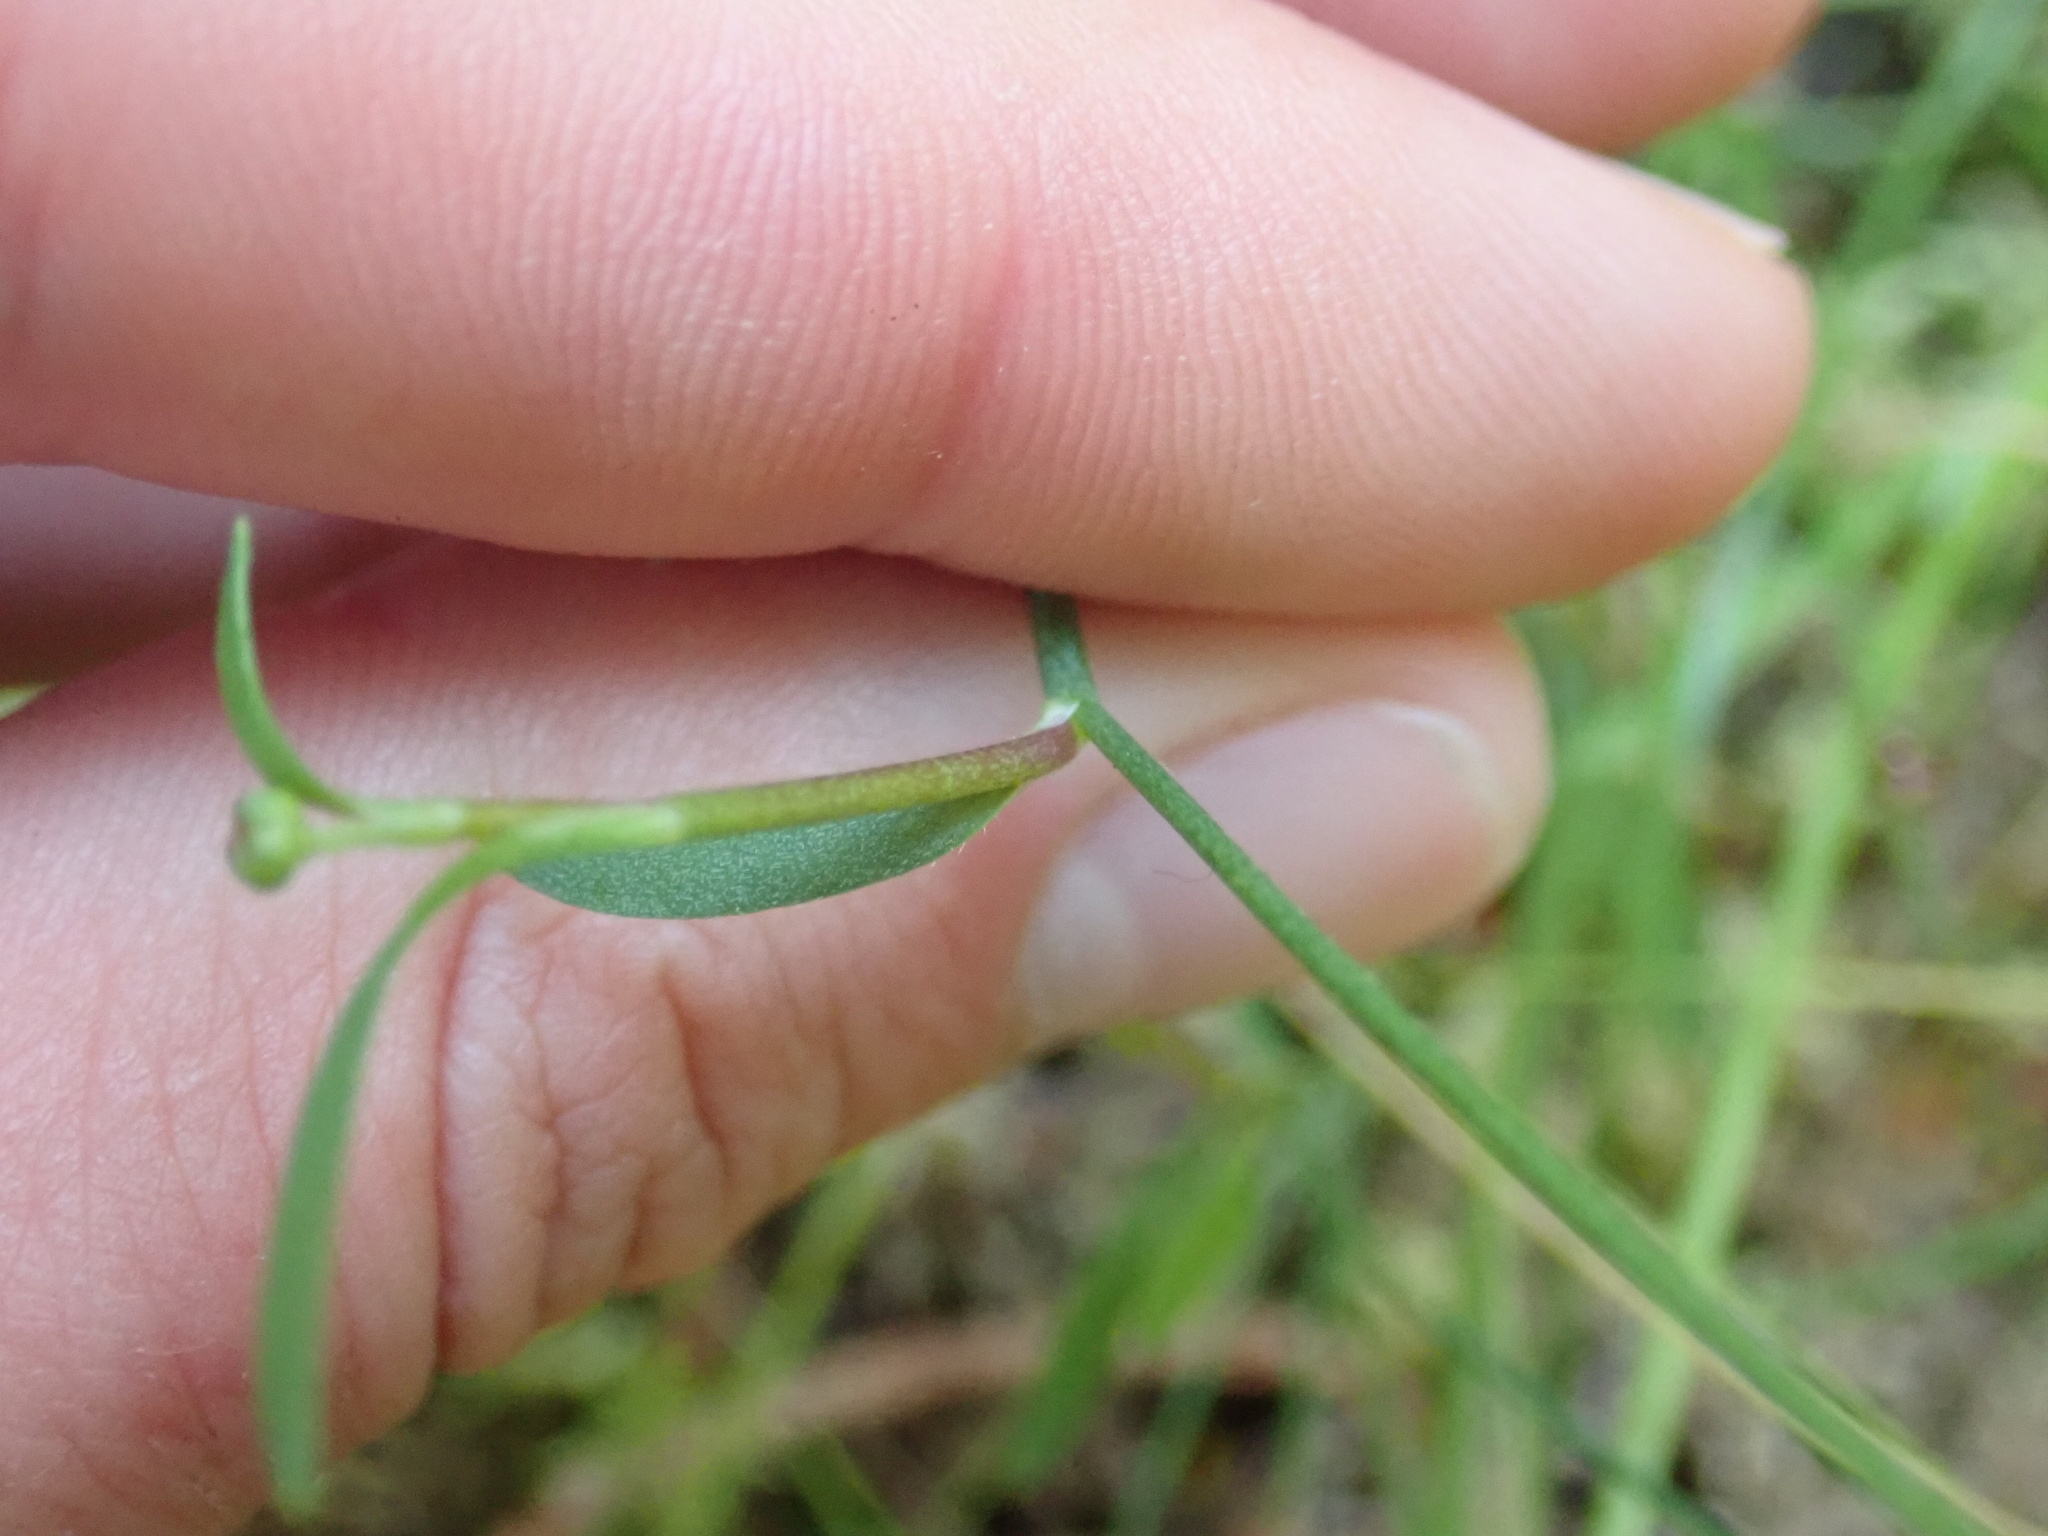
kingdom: Plantae
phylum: Tracheophyta
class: Magnoliopsida
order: Ranunculales
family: Ranunculaceae
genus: Ranunculus
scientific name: Ranunculus flammula
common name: Lesser spearwort
